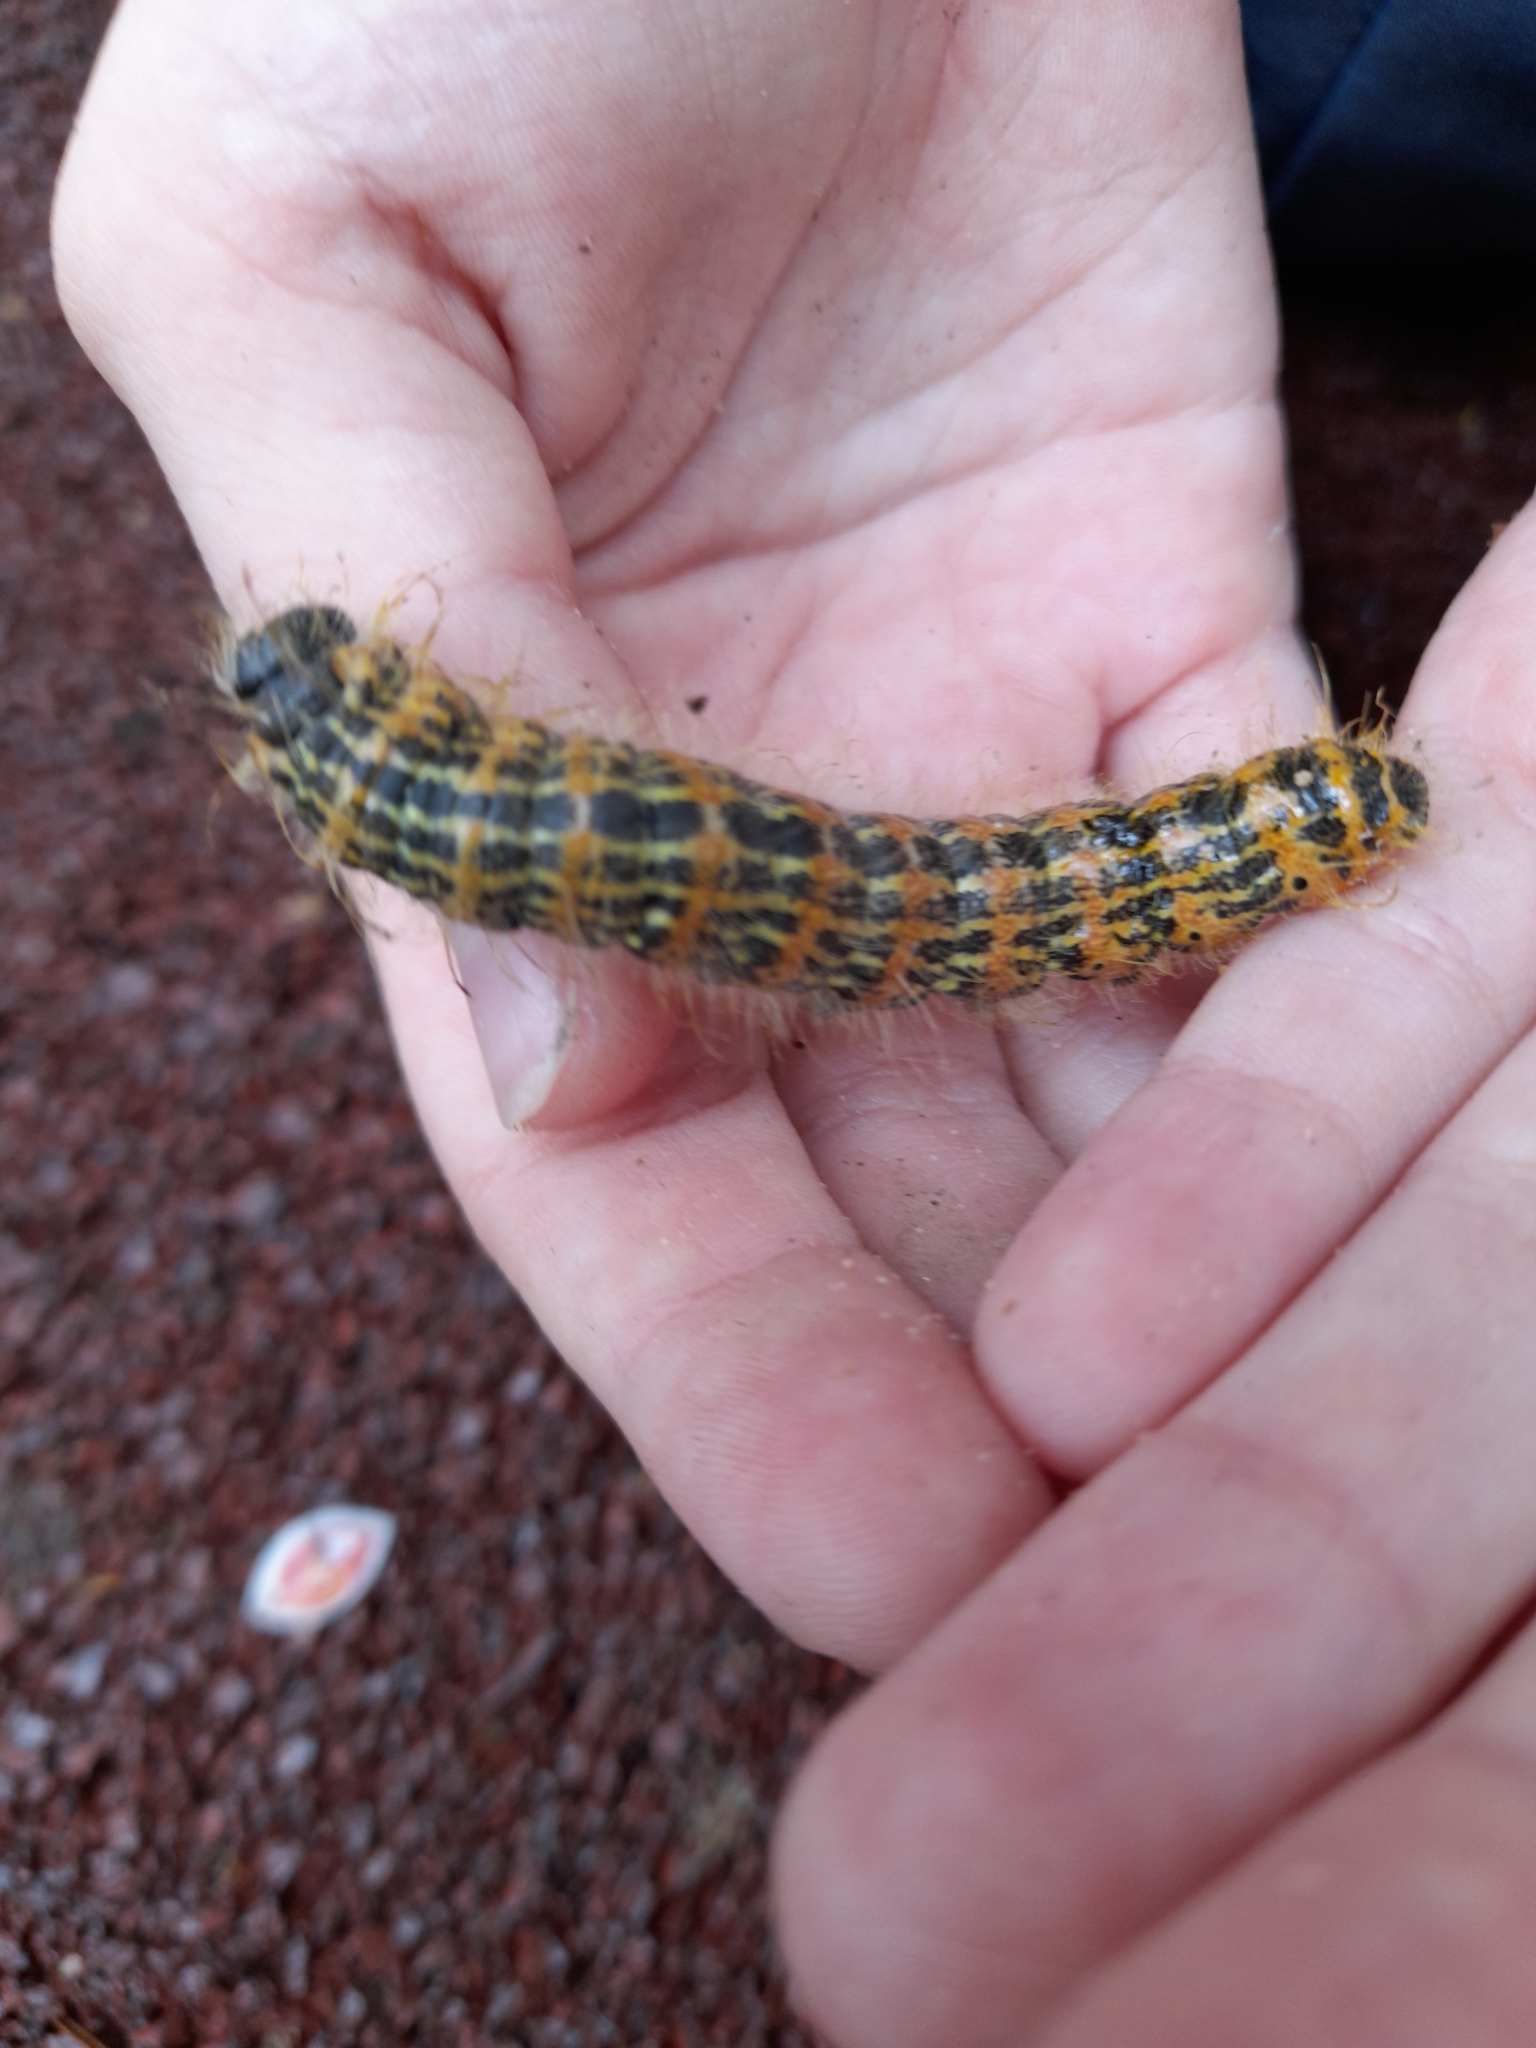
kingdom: Animalia
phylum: Arthropoda
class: Insecta
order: Lepidoptera
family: Notodontidae
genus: Phalera
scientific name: Phalera bucephala
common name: Buff-tip
